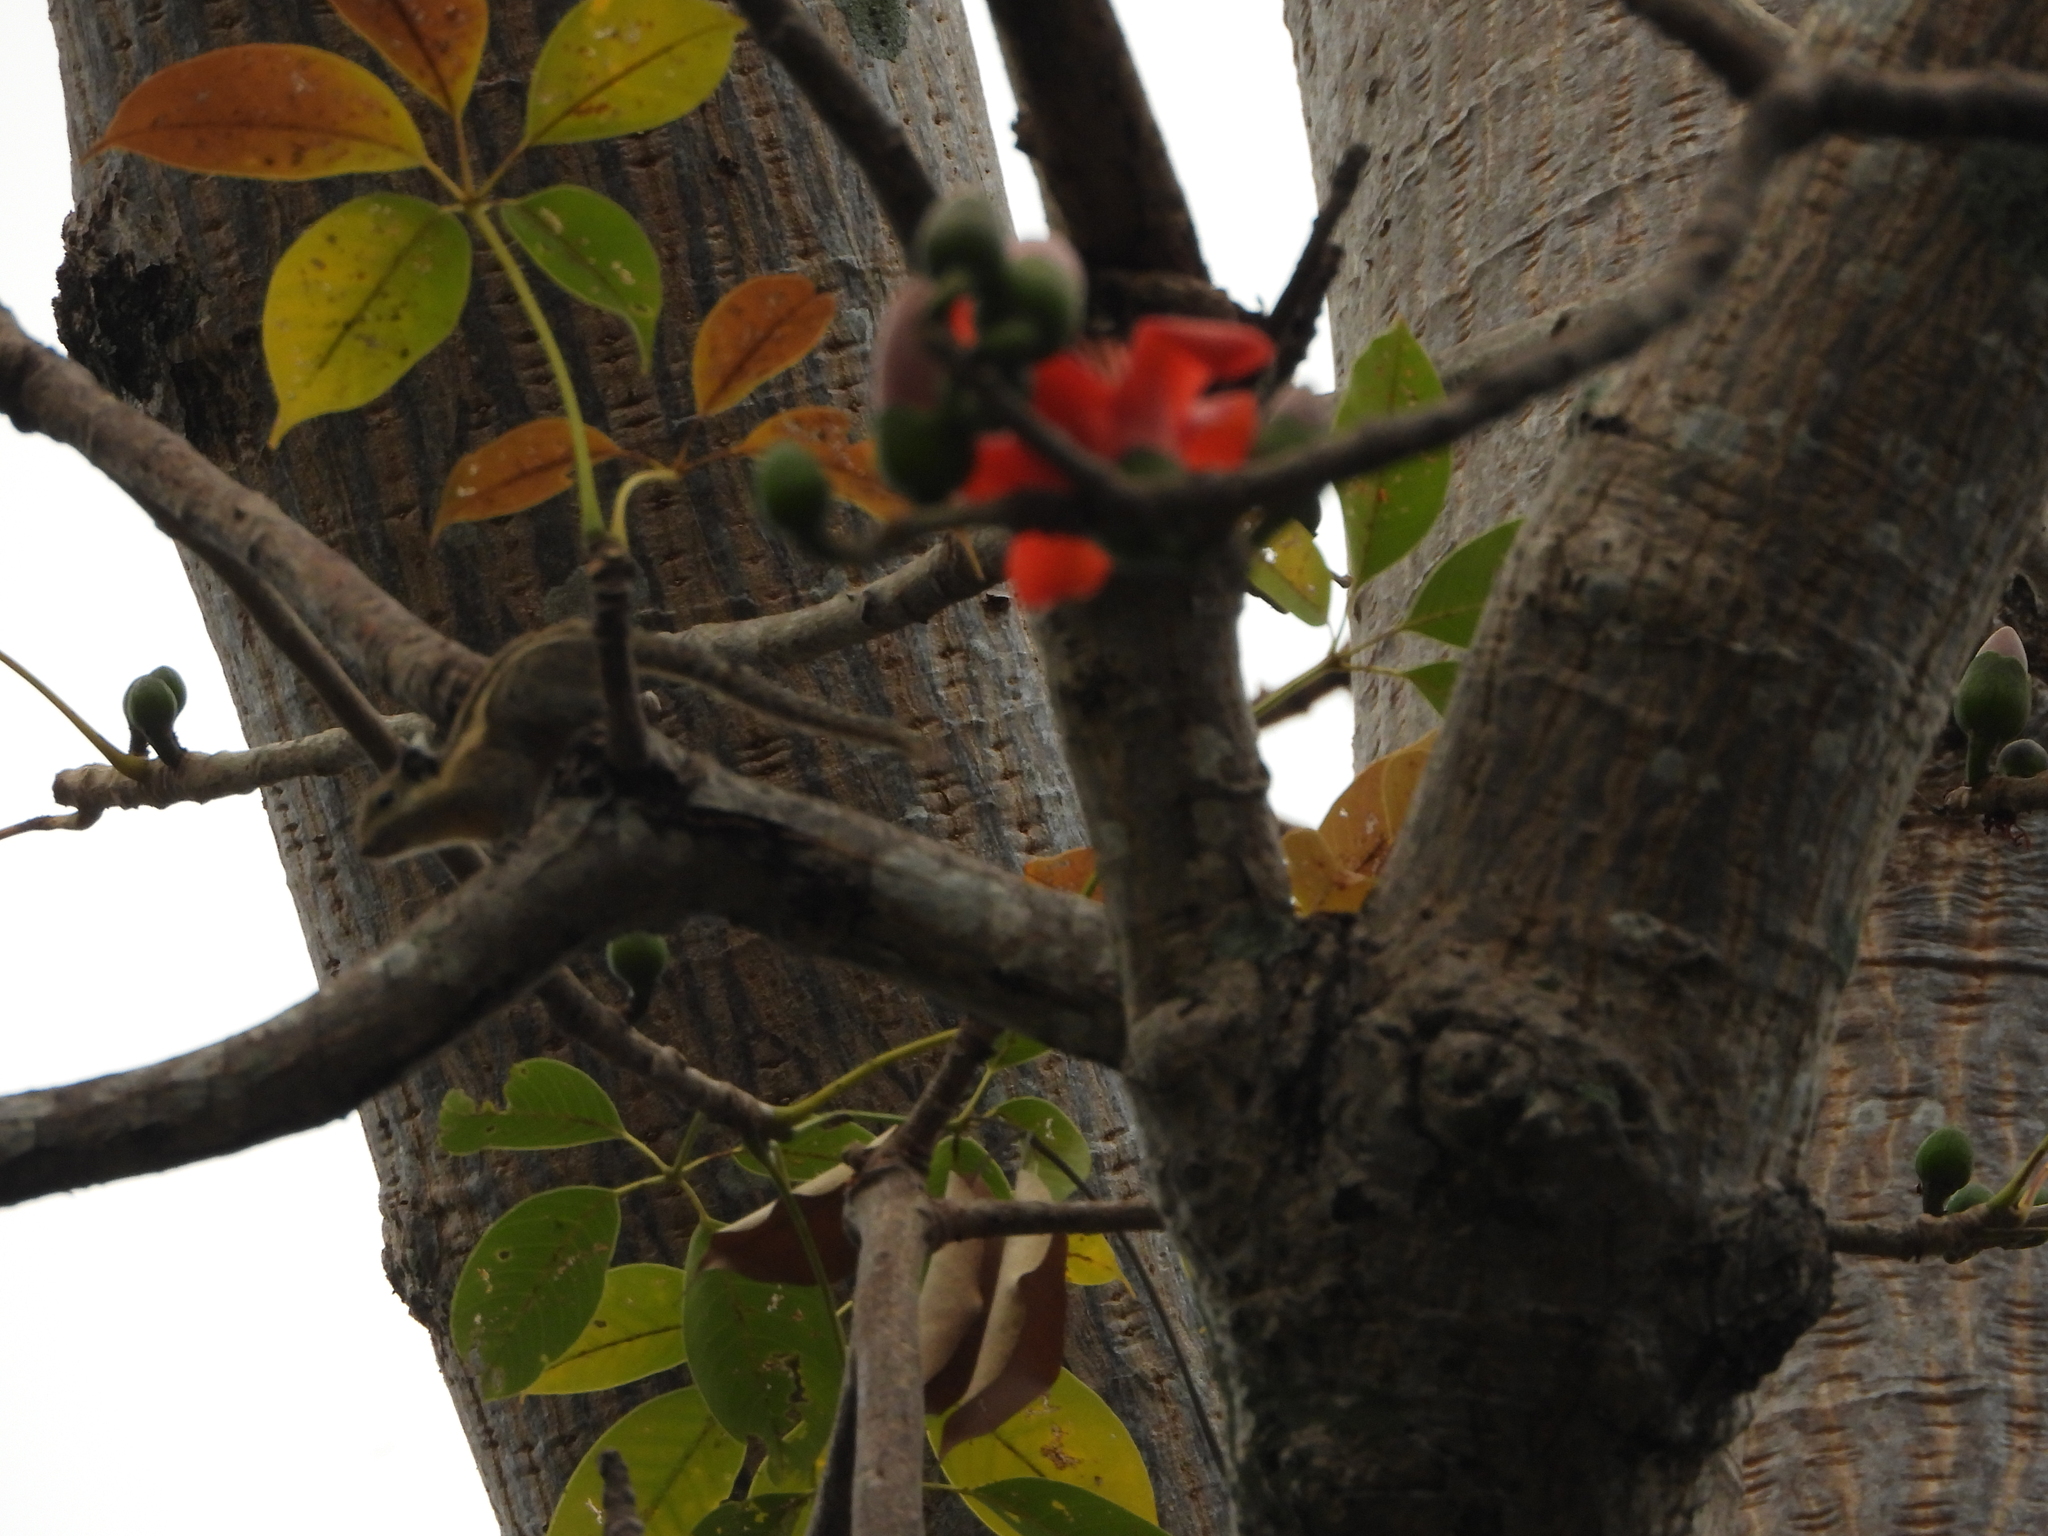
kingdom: Animalia
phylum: Chordata
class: Mammalia
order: Rodentia
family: Sciuridae
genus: Tamiops
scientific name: Tamiops mcclellandii
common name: Himalayan striped squirrel
